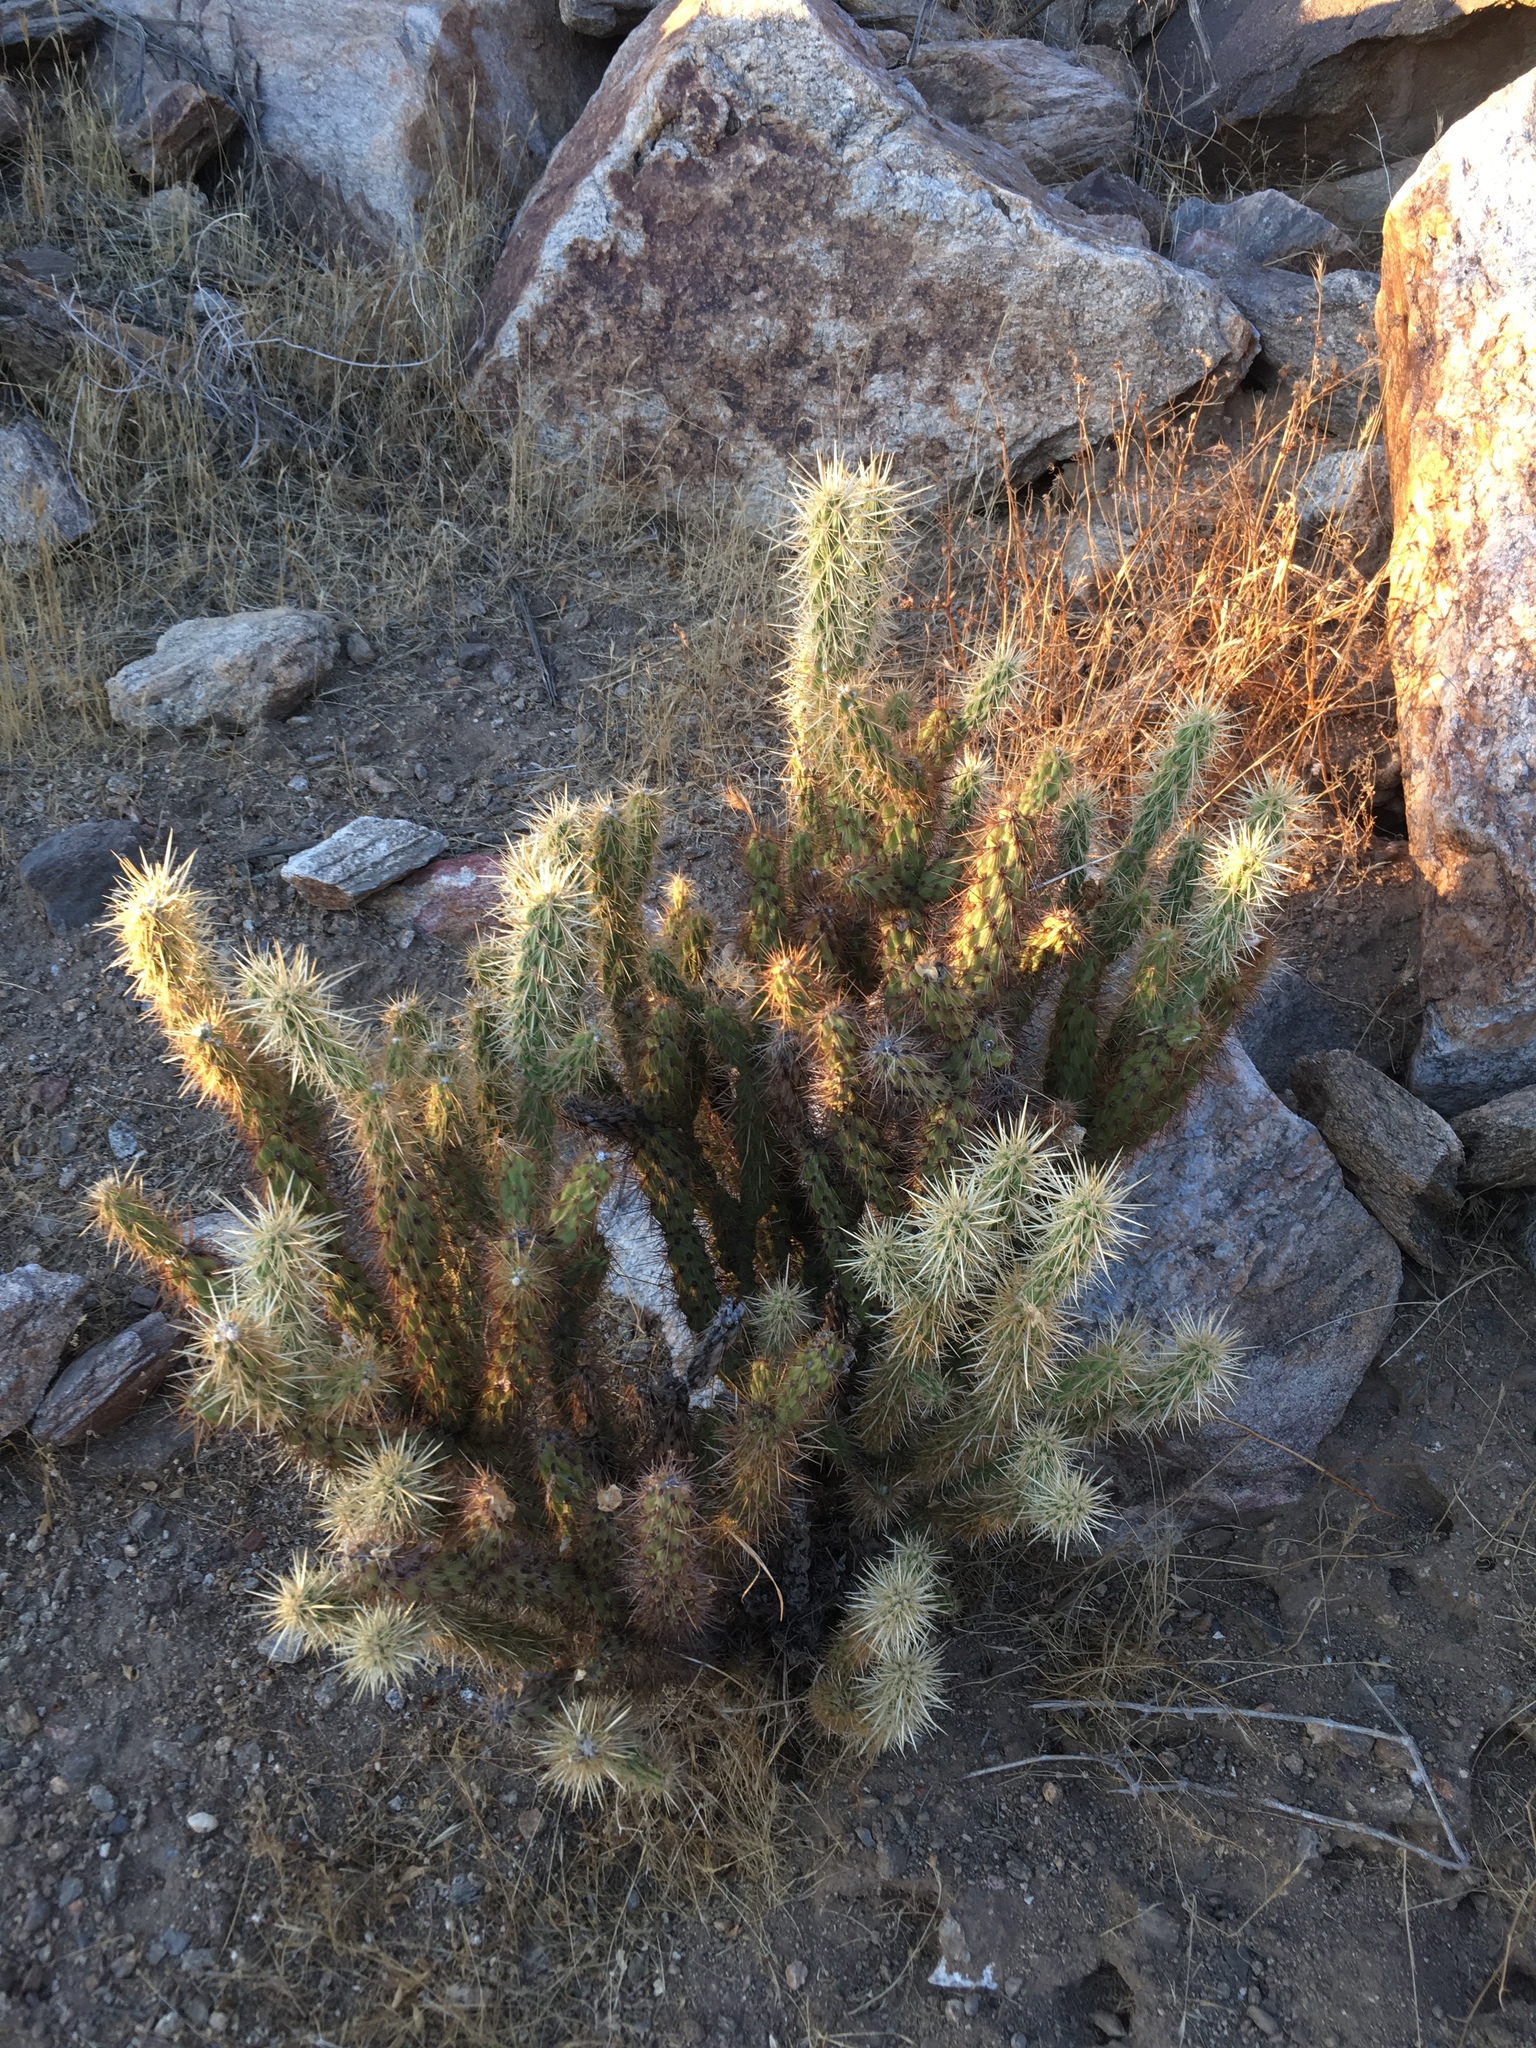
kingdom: Plantae
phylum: Tracheophyta
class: Magnoliopsida
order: Caryophyllales
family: Cactaceae
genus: Cylindropuntia
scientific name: Cylindropuntia ganderi
